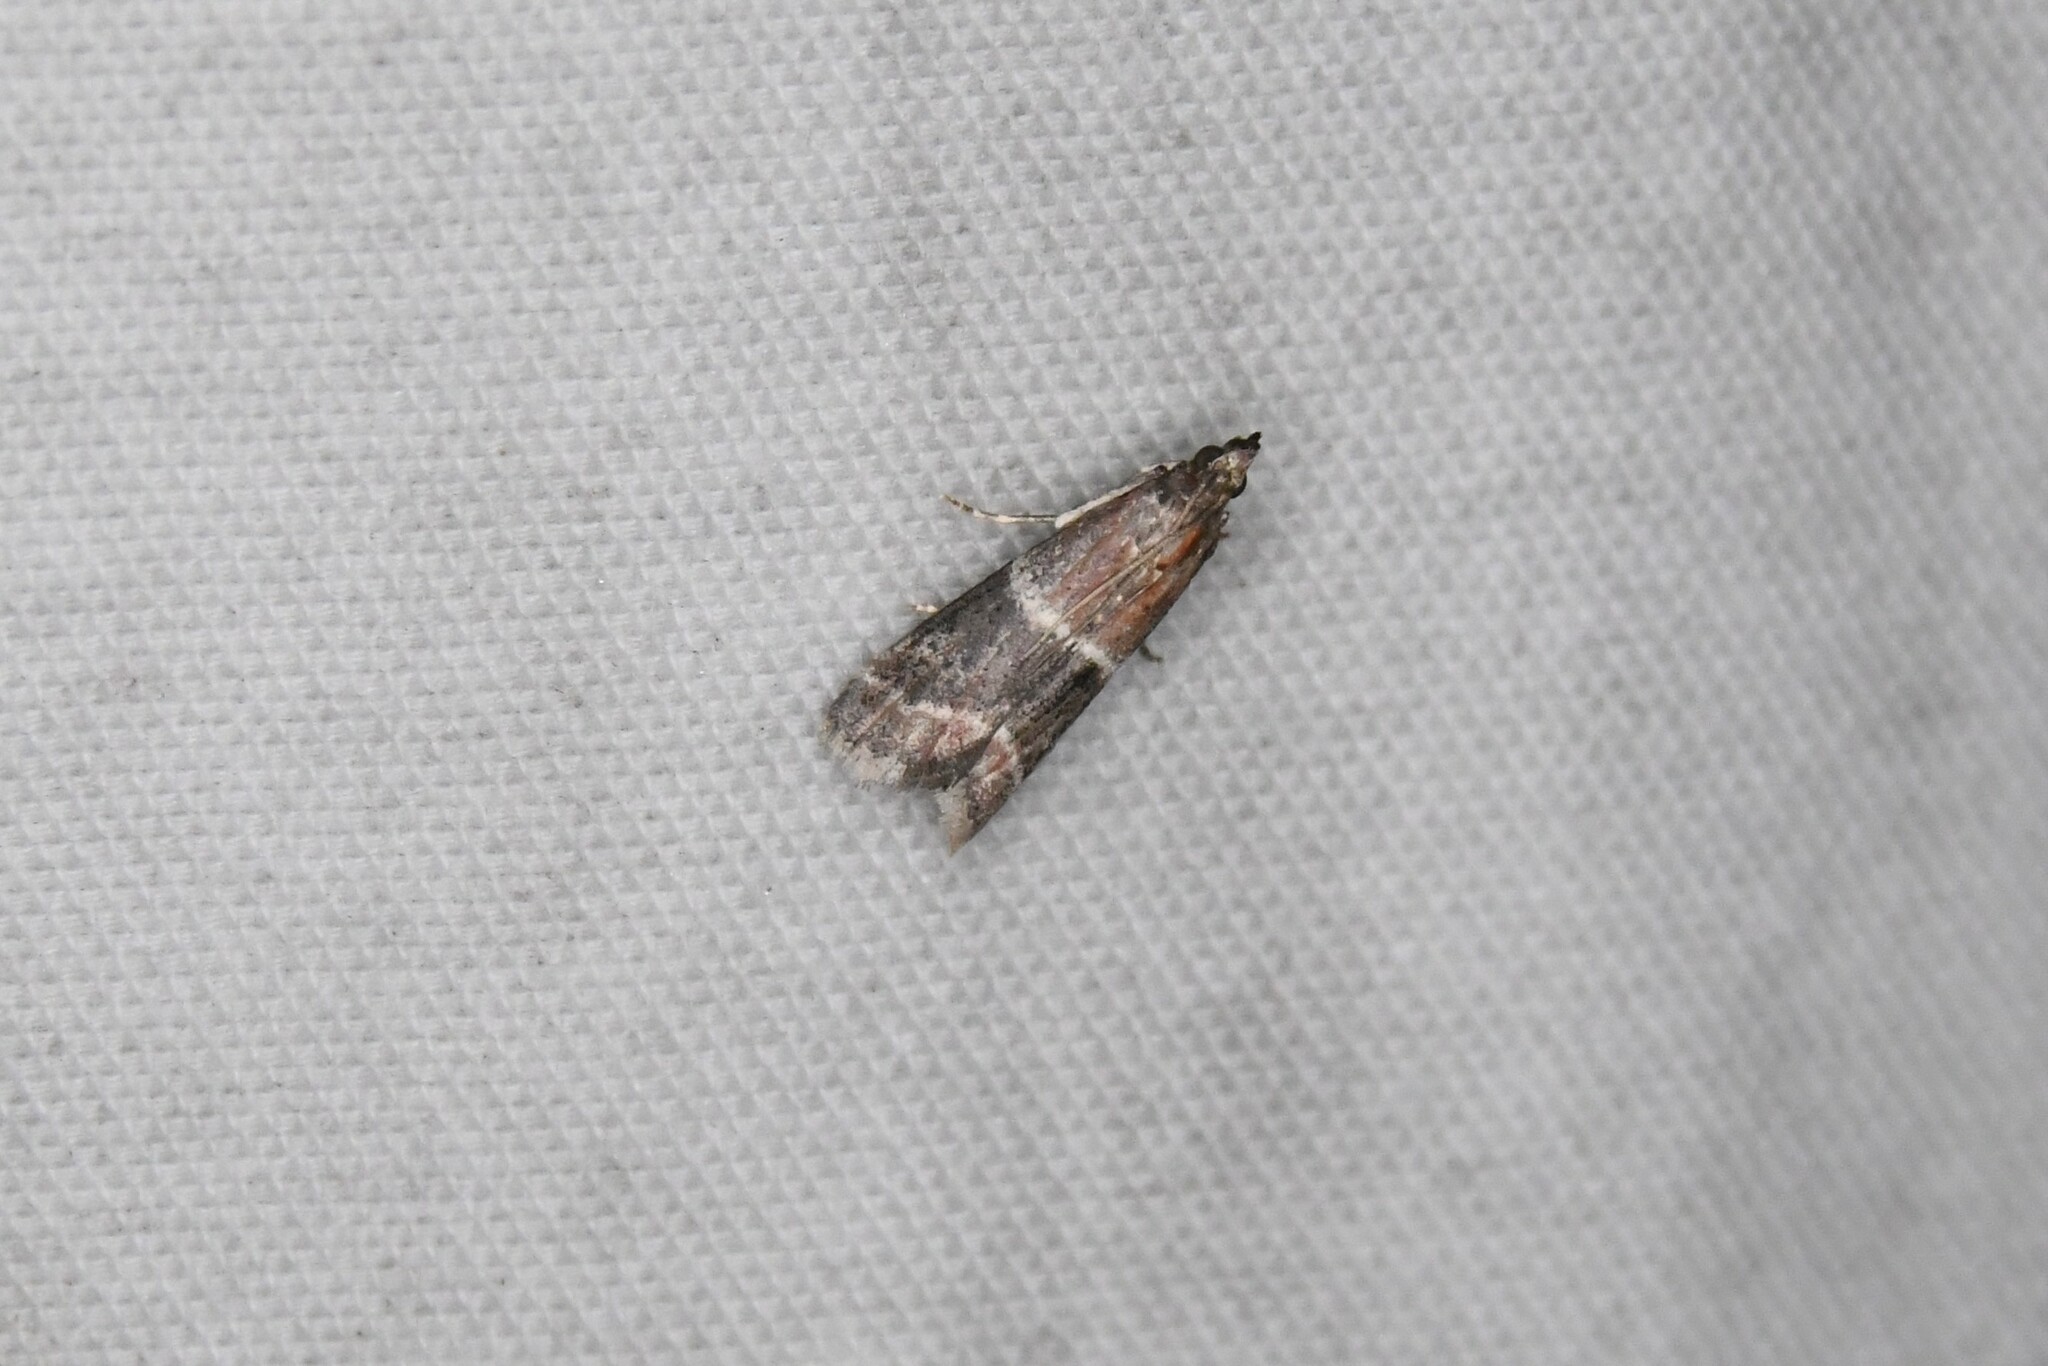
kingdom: Animalia
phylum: Arthropoda
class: Insecta
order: Lepidoptera
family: Pyralidae
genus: Moodna
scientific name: Moodna ostrinella
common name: Darker moodna moth
